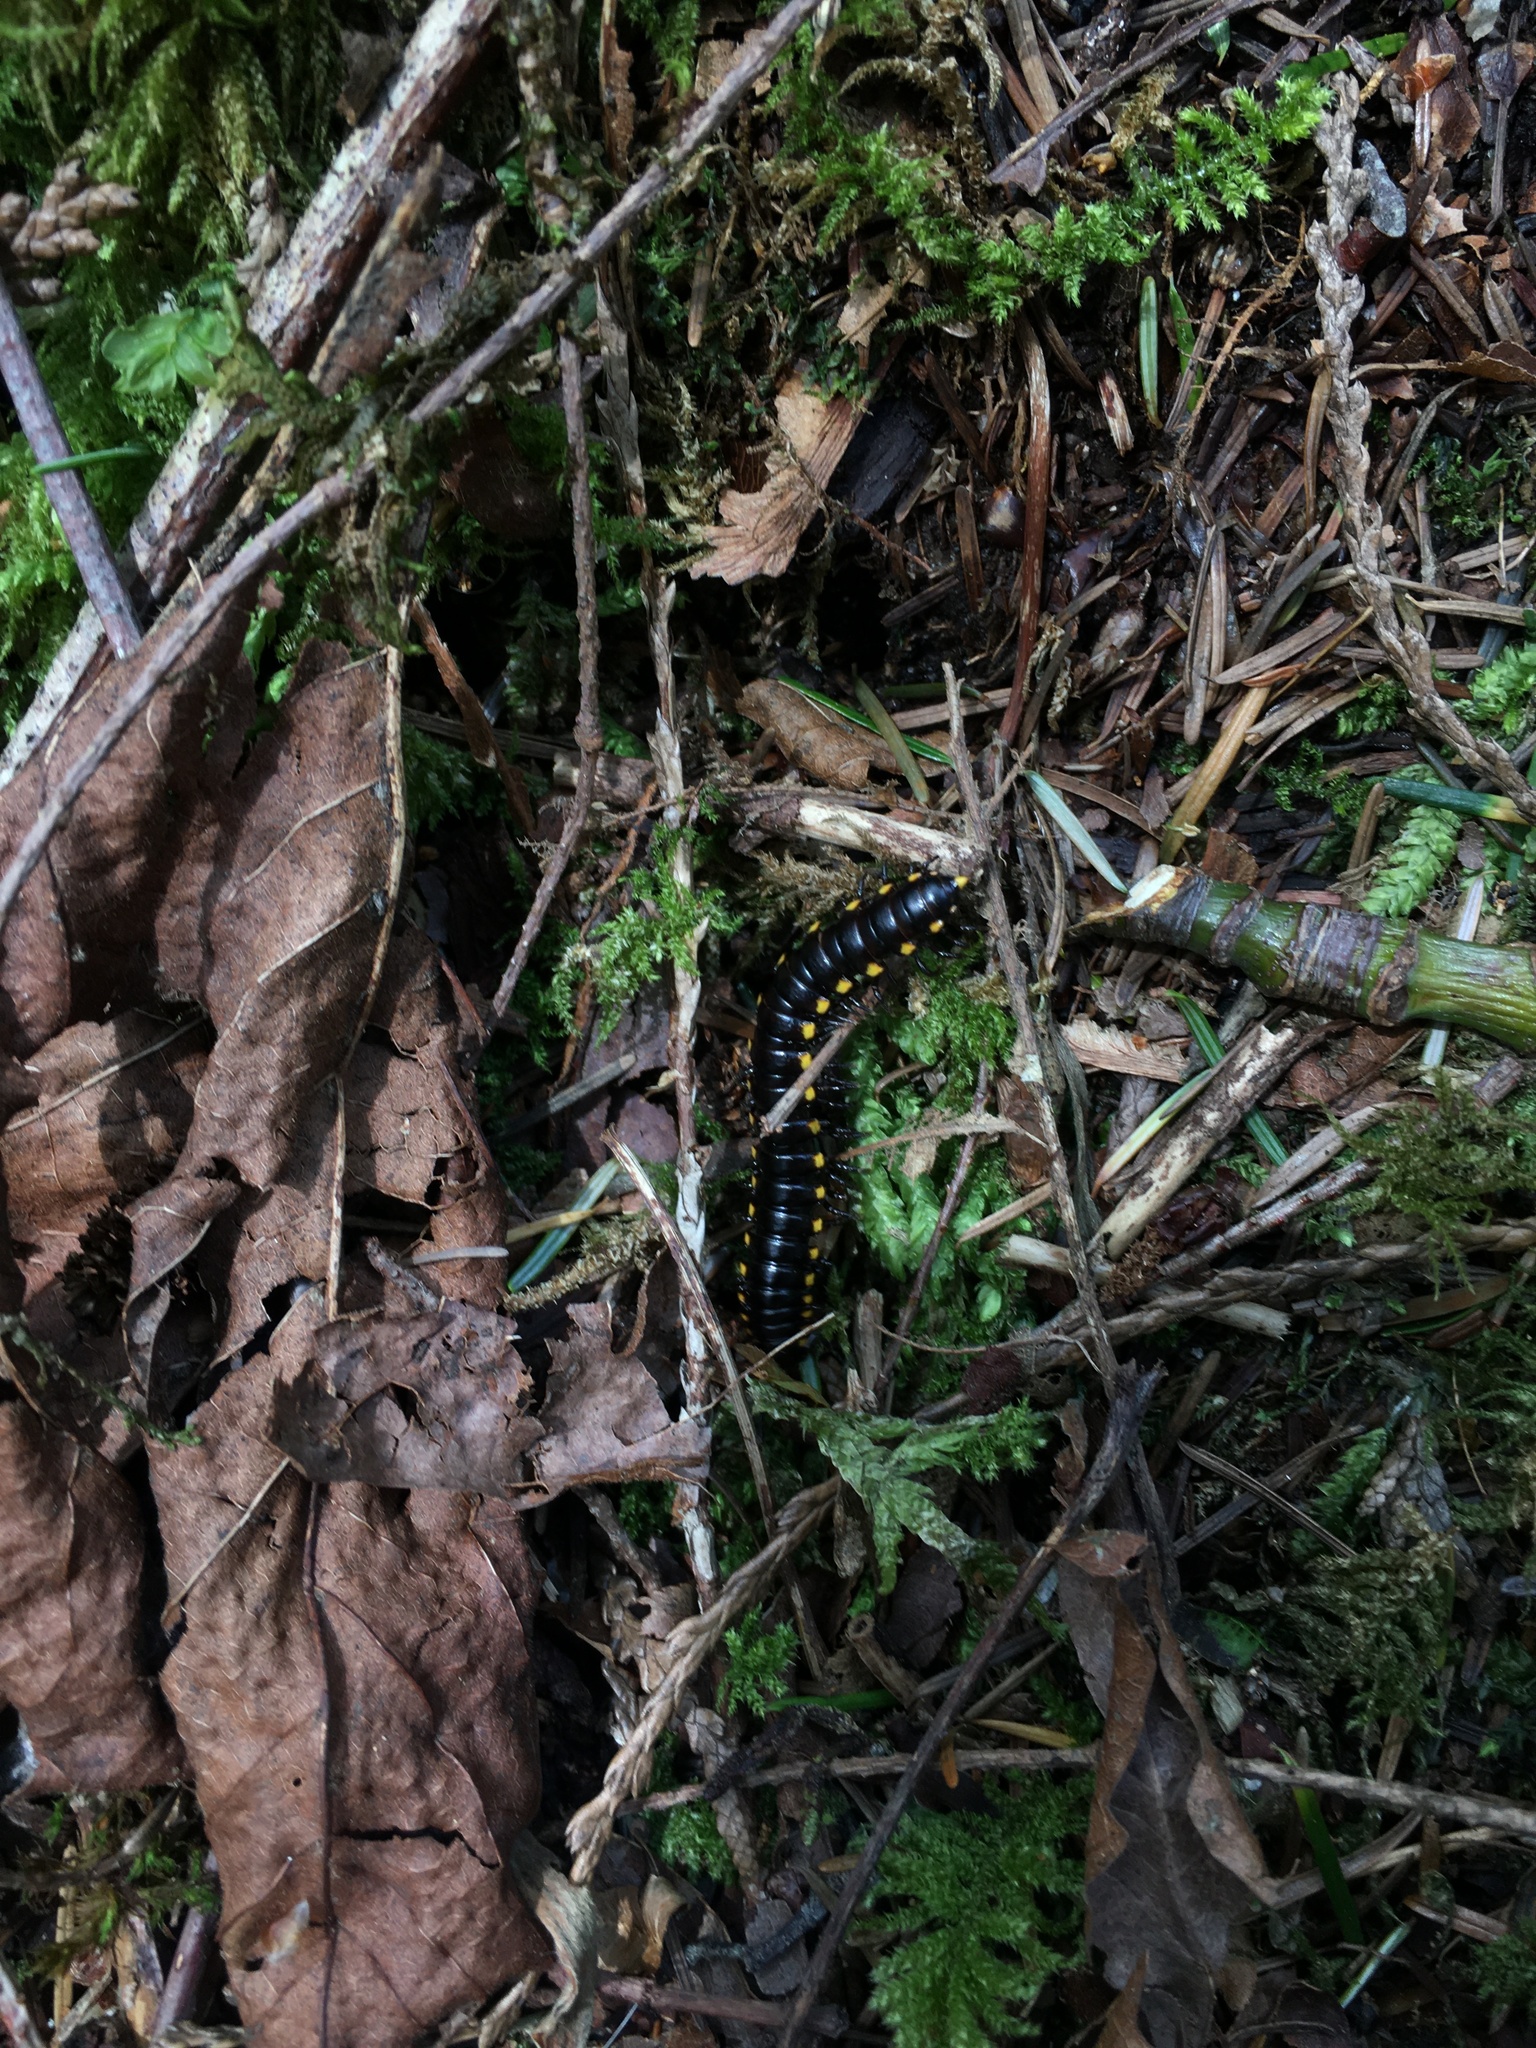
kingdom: Animalia
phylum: Arthropoda
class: Diplopoda
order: Polydesmida
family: Xystodesmidae
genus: Harpaphe
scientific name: Harpaphe haydeniana
